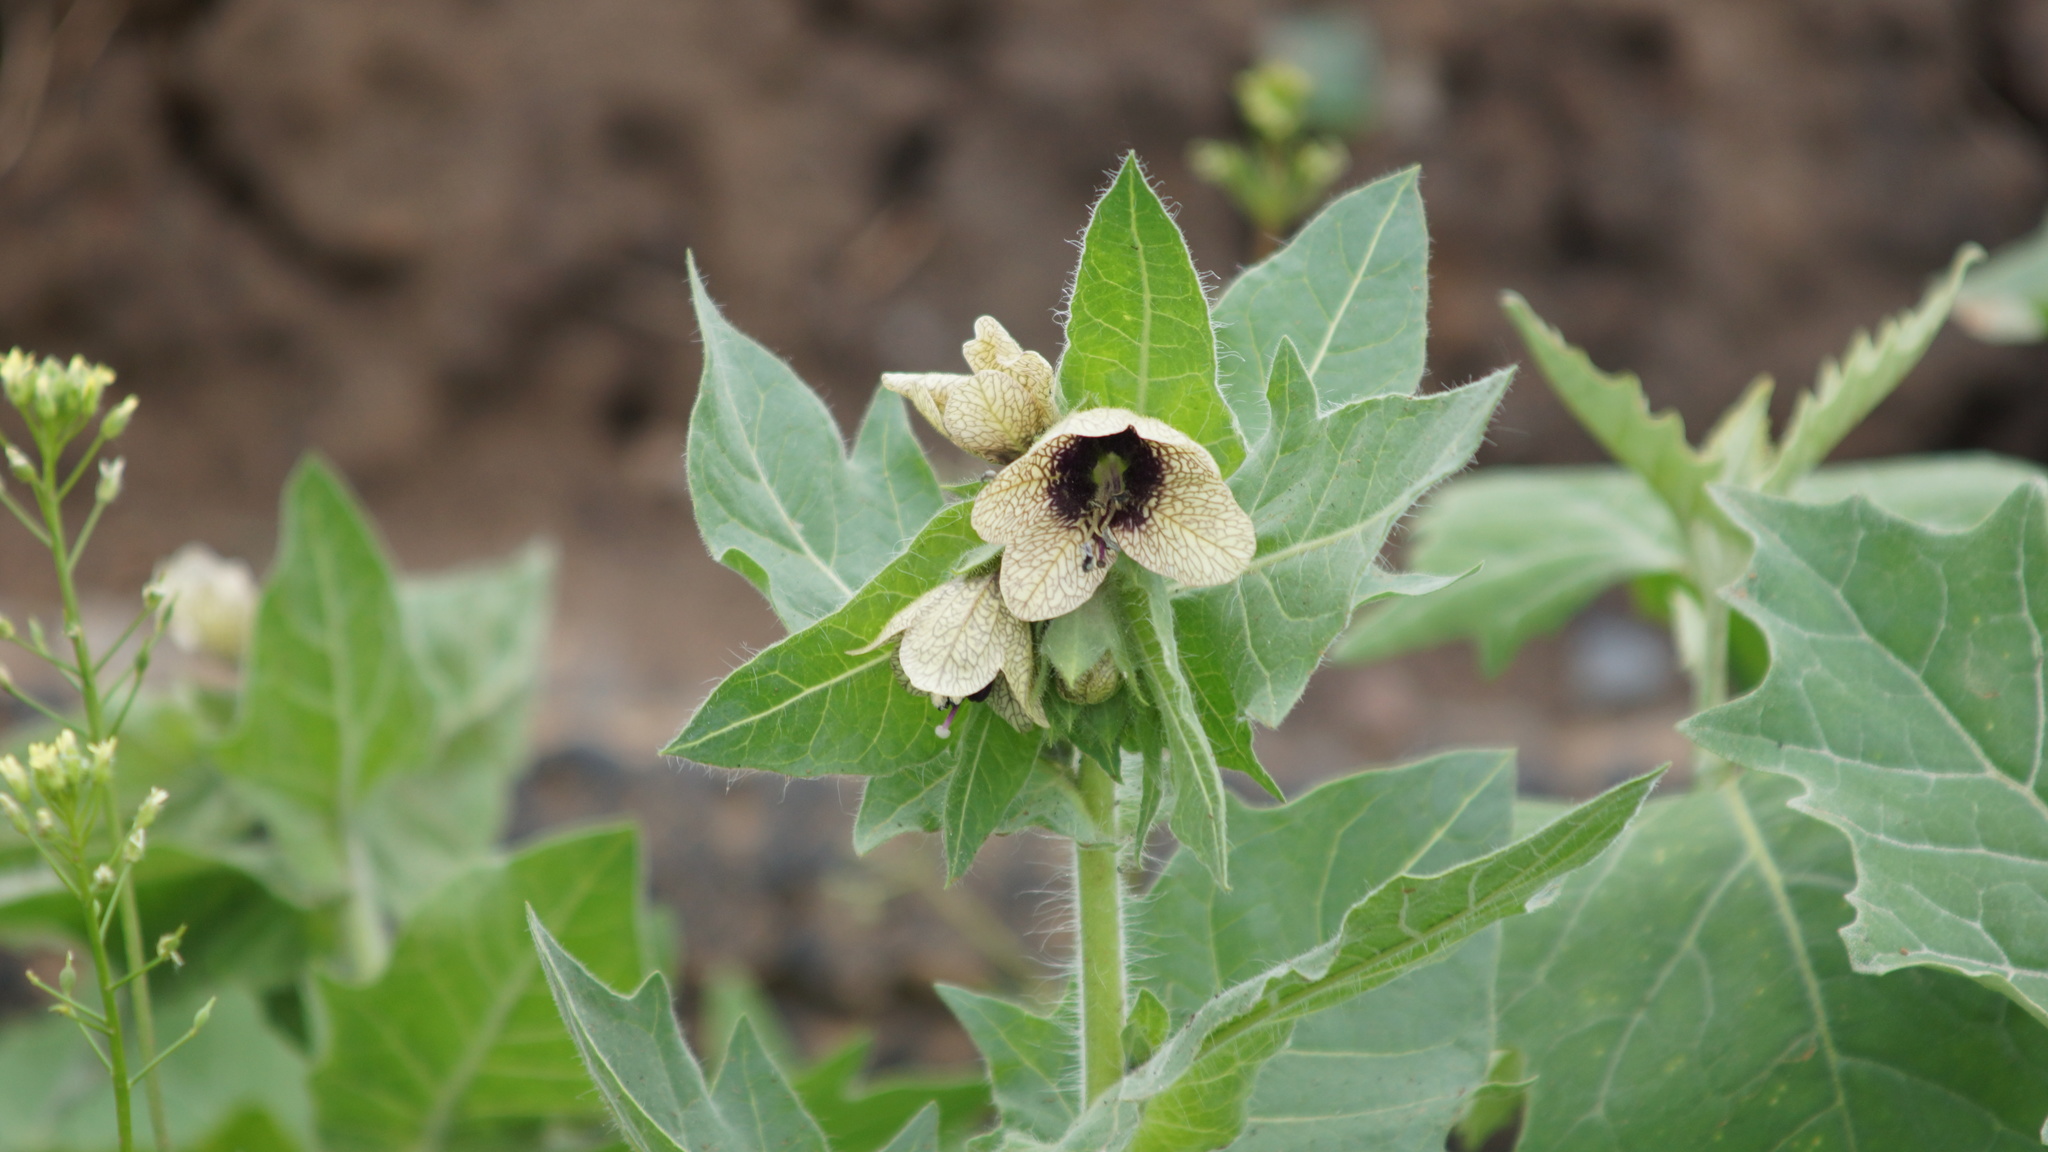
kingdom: Plantae
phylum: Tracheophyta
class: Magnoliopsida
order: Solanales
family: Solanaceae
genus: Hyoscyamus
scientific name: Hyoscyamus niger
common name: Henbane
